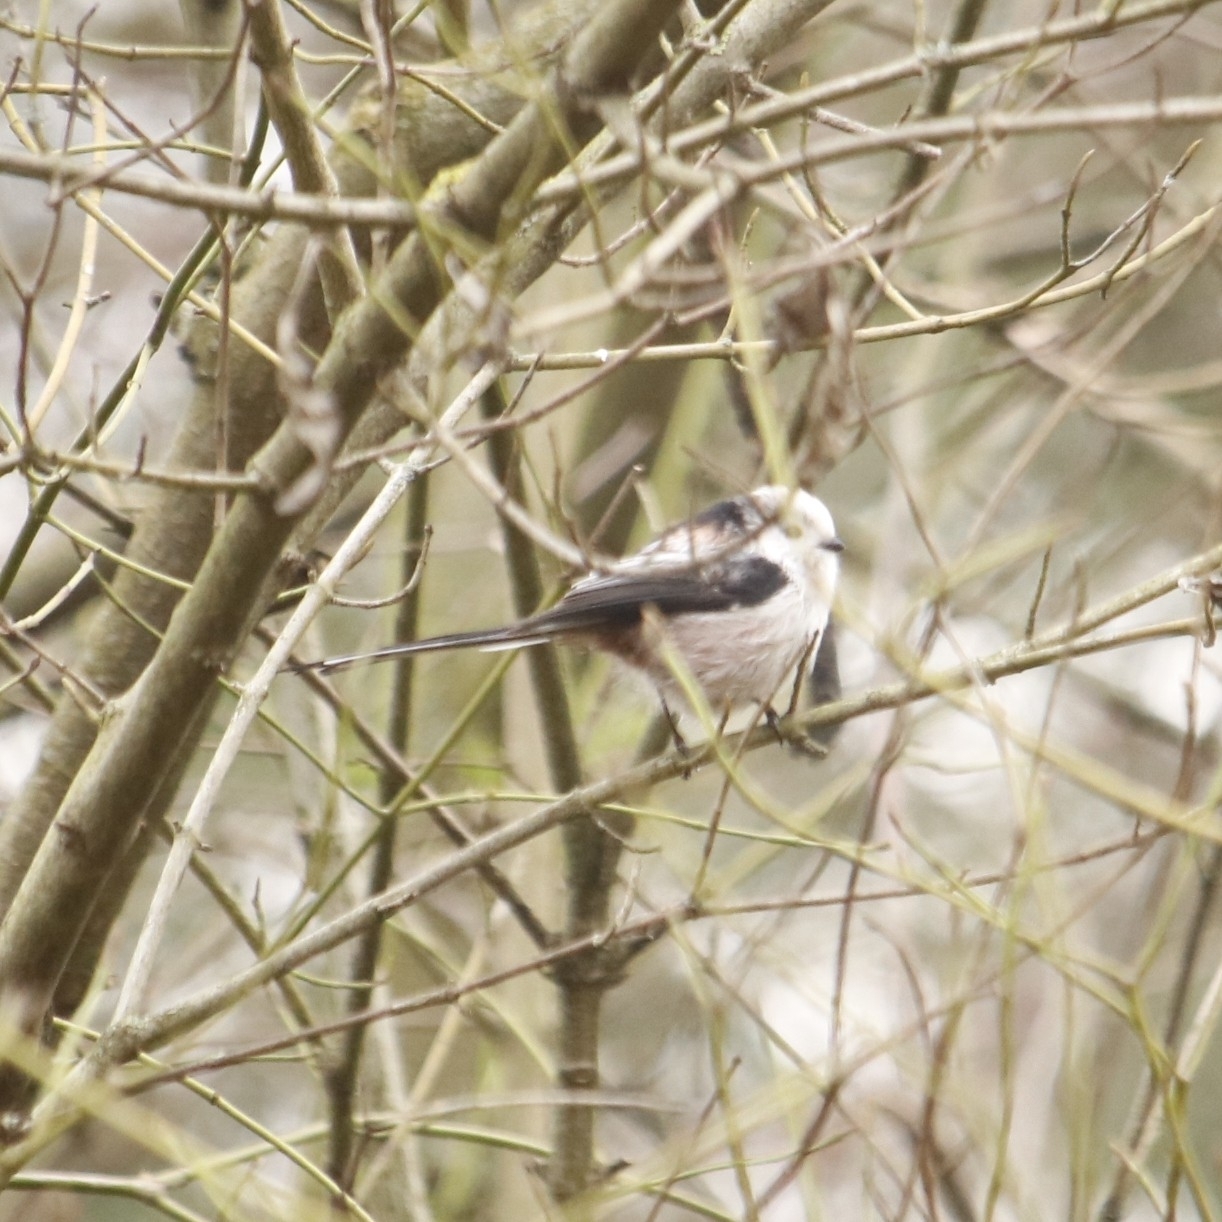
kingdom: Animalia
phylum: Chordata
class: Aves
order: Passeriformes
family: Aegithalidae
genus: Aegithalos
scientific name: Aegithalos caudatus
